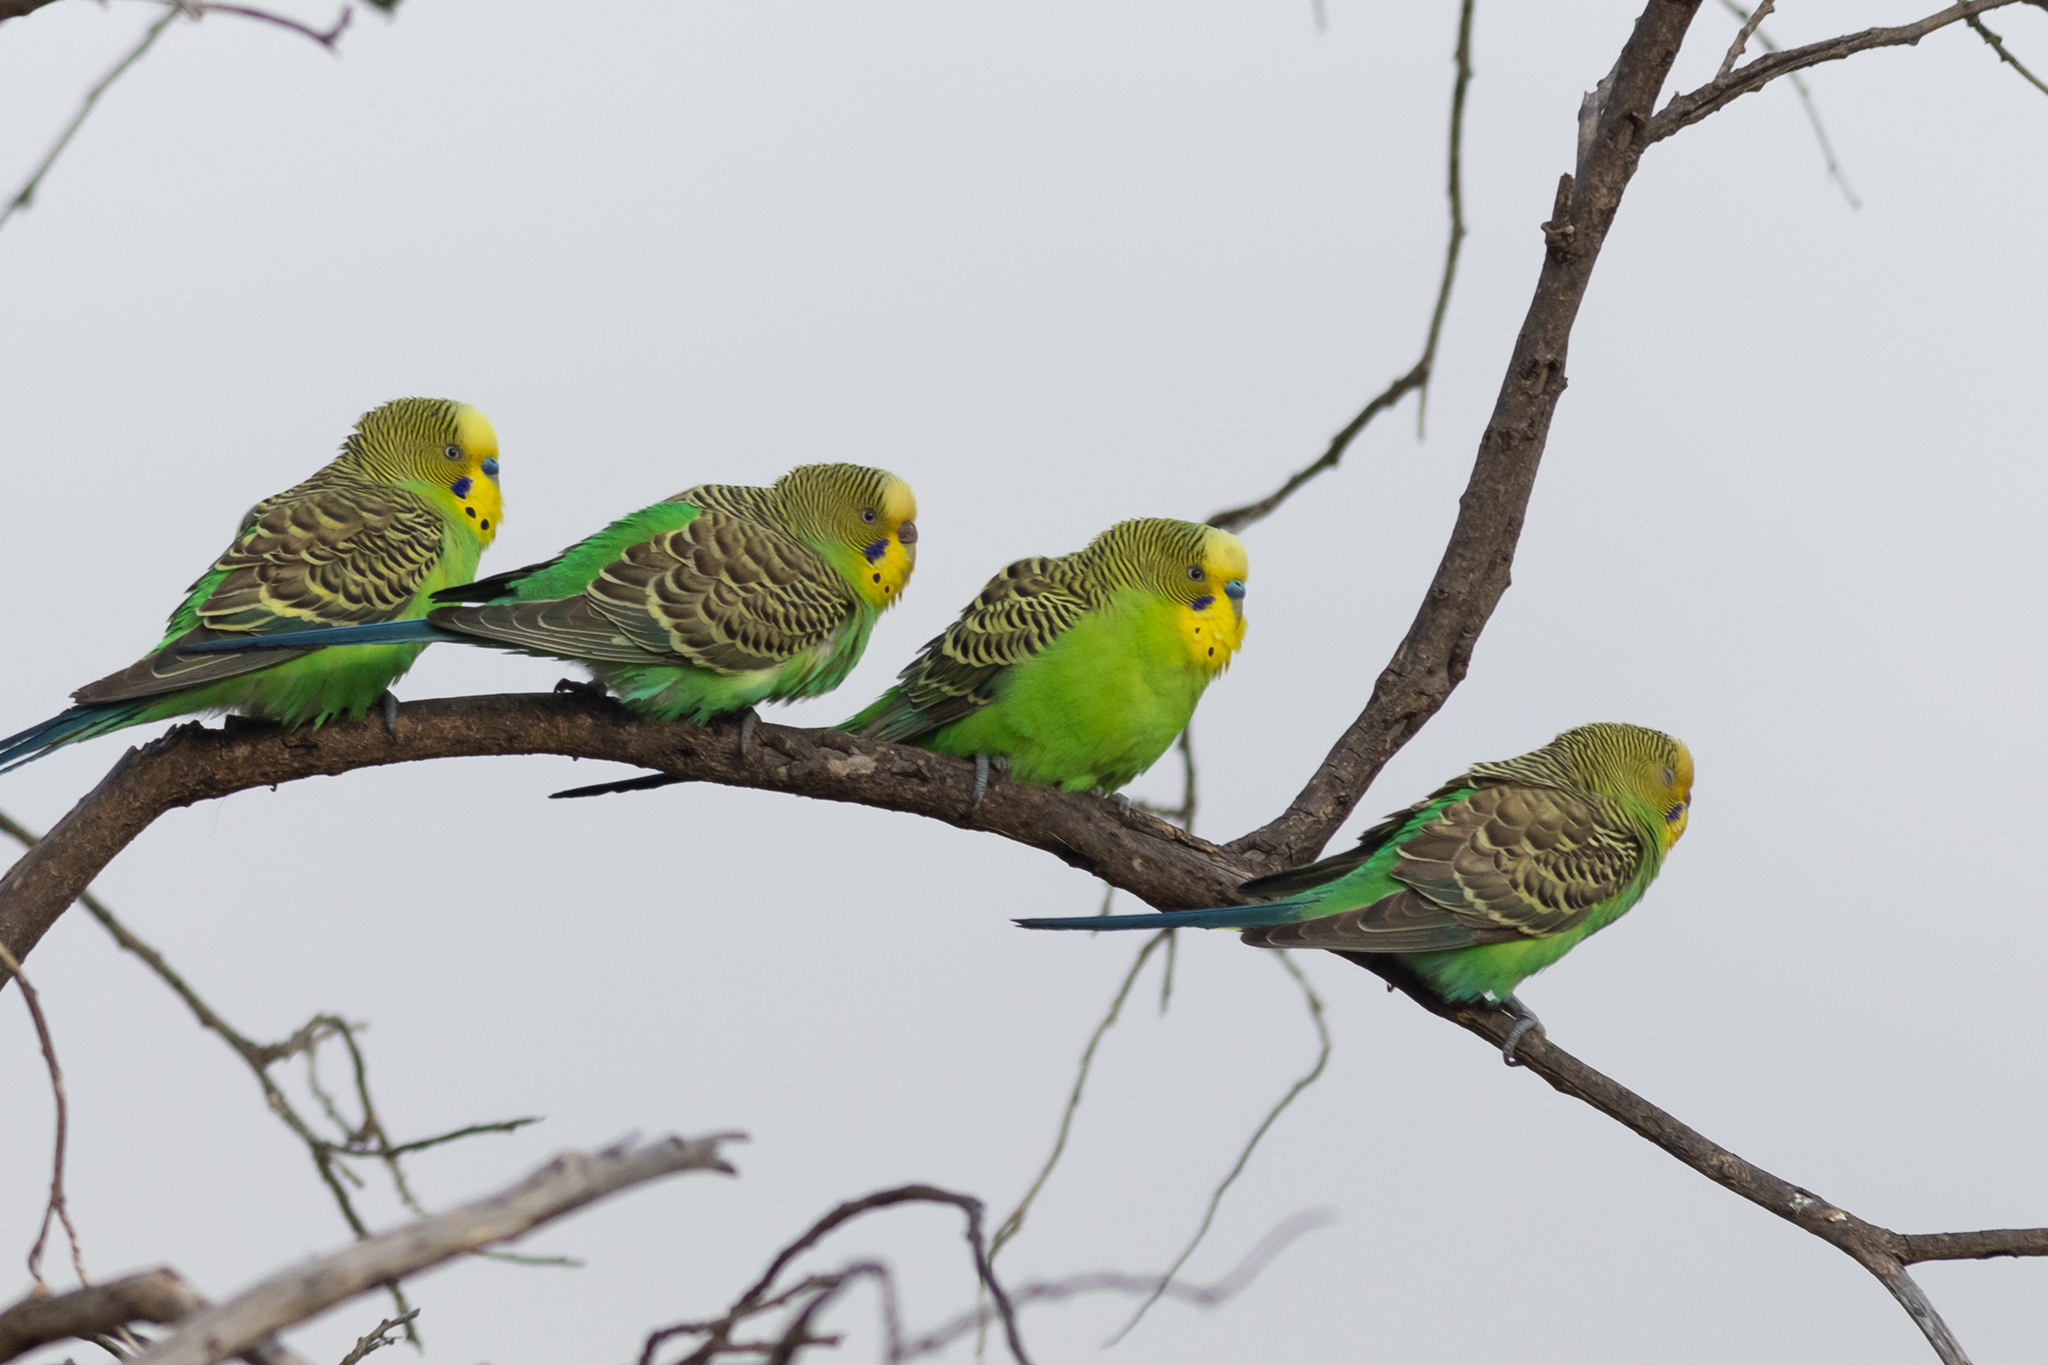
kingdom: Animalia
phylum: Chordata
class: Aves
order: Psittaciformes
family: Psittacidae
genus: Melopsittacus
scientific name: Melopsittacus undulatus
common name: Budgerigar
